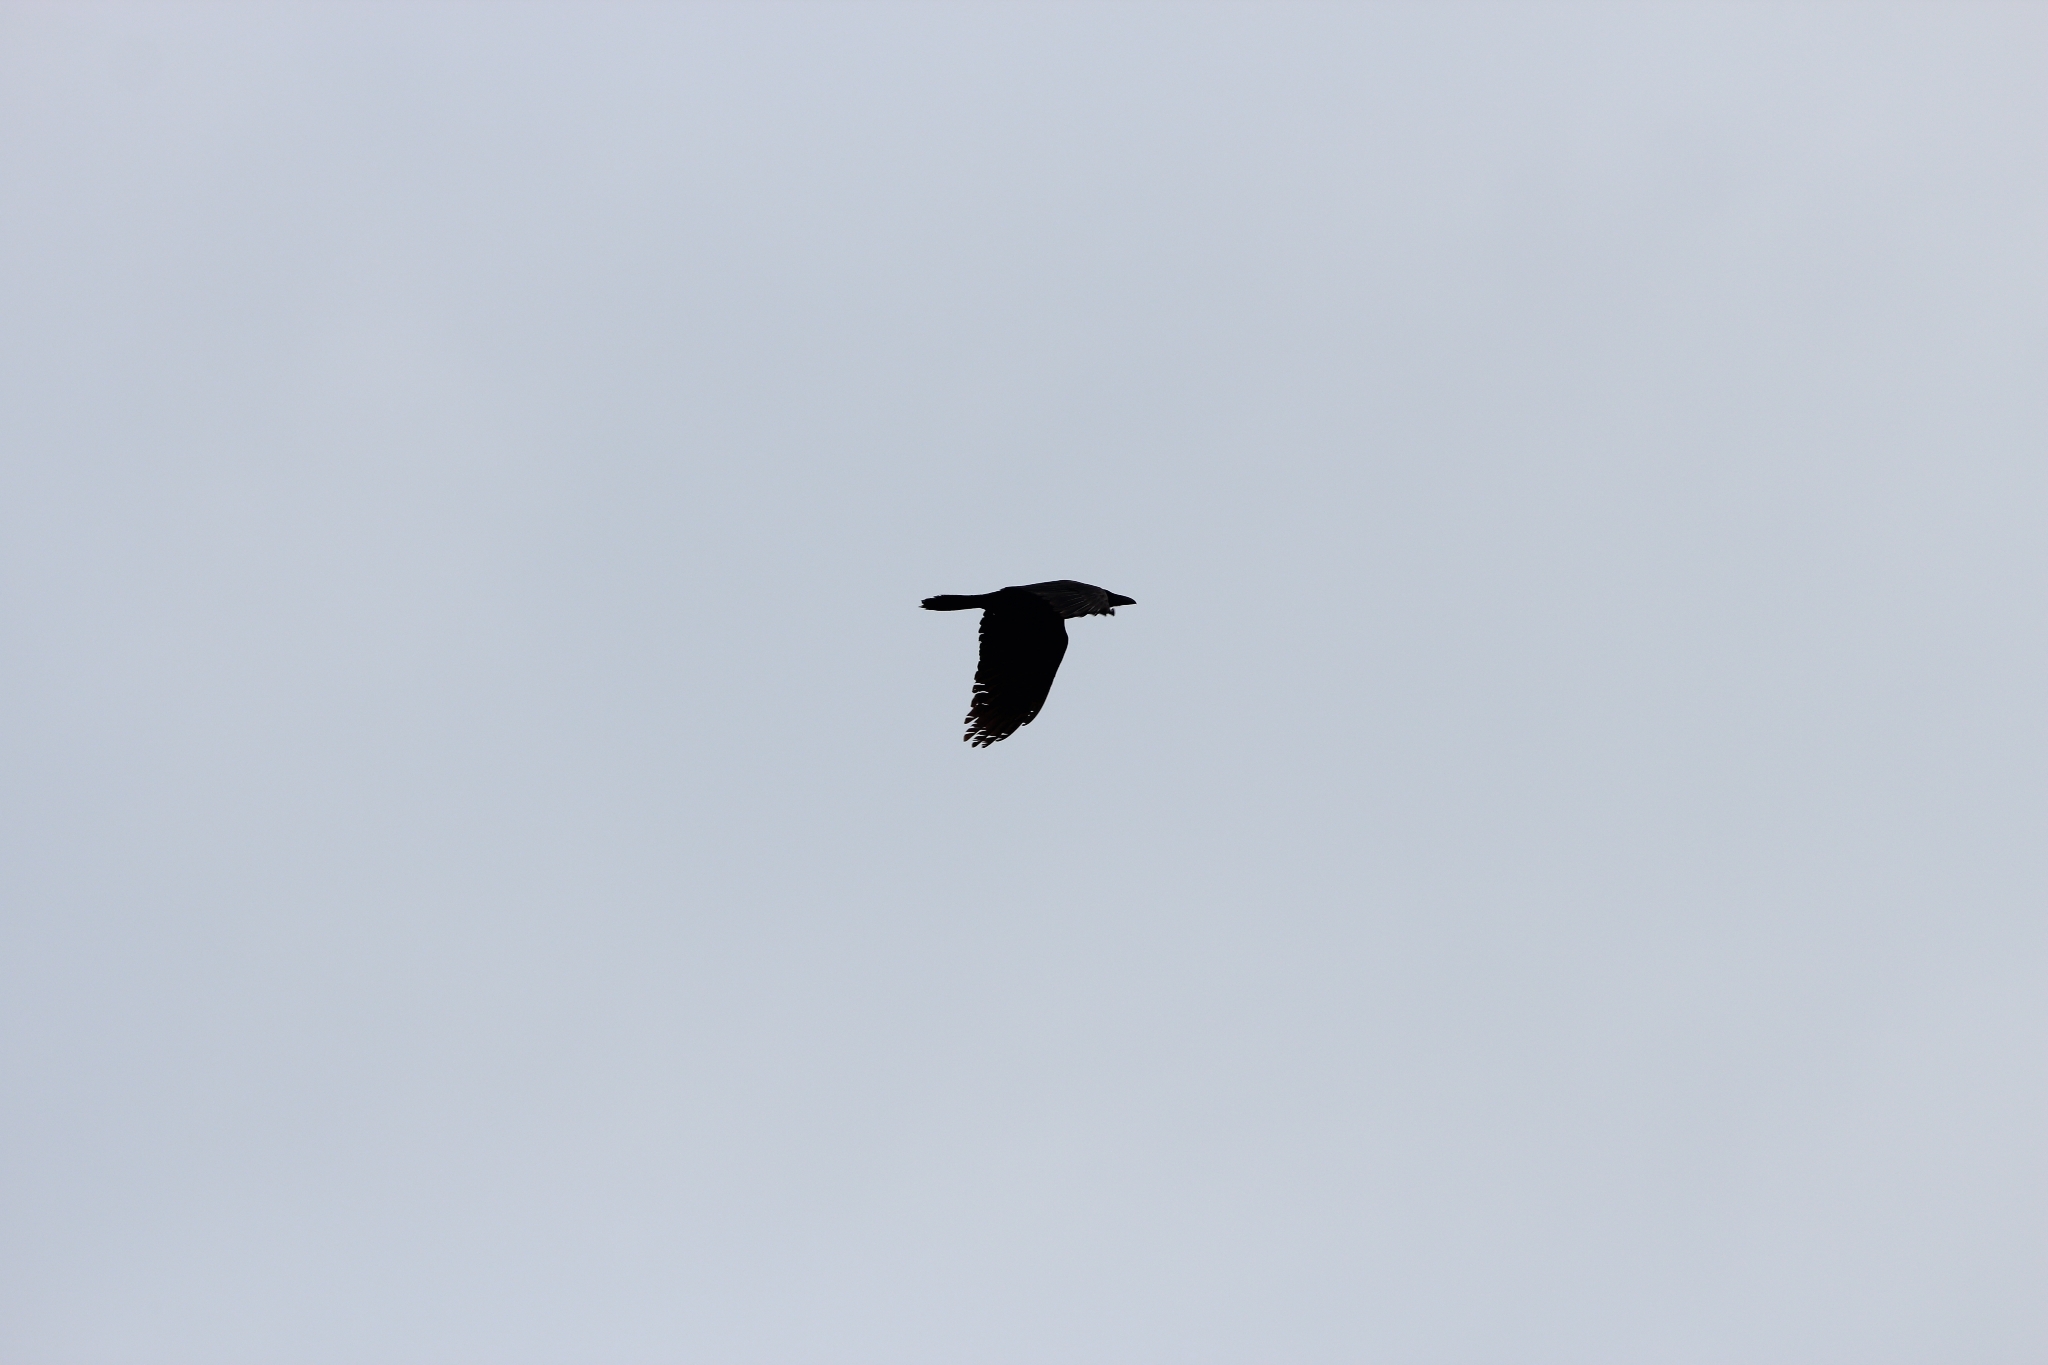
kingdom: Animalia
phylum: Chordata
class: Aves
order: Passeriformes
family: Corvidae
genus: Corvus
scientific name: Corvus corax
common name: Common raven
